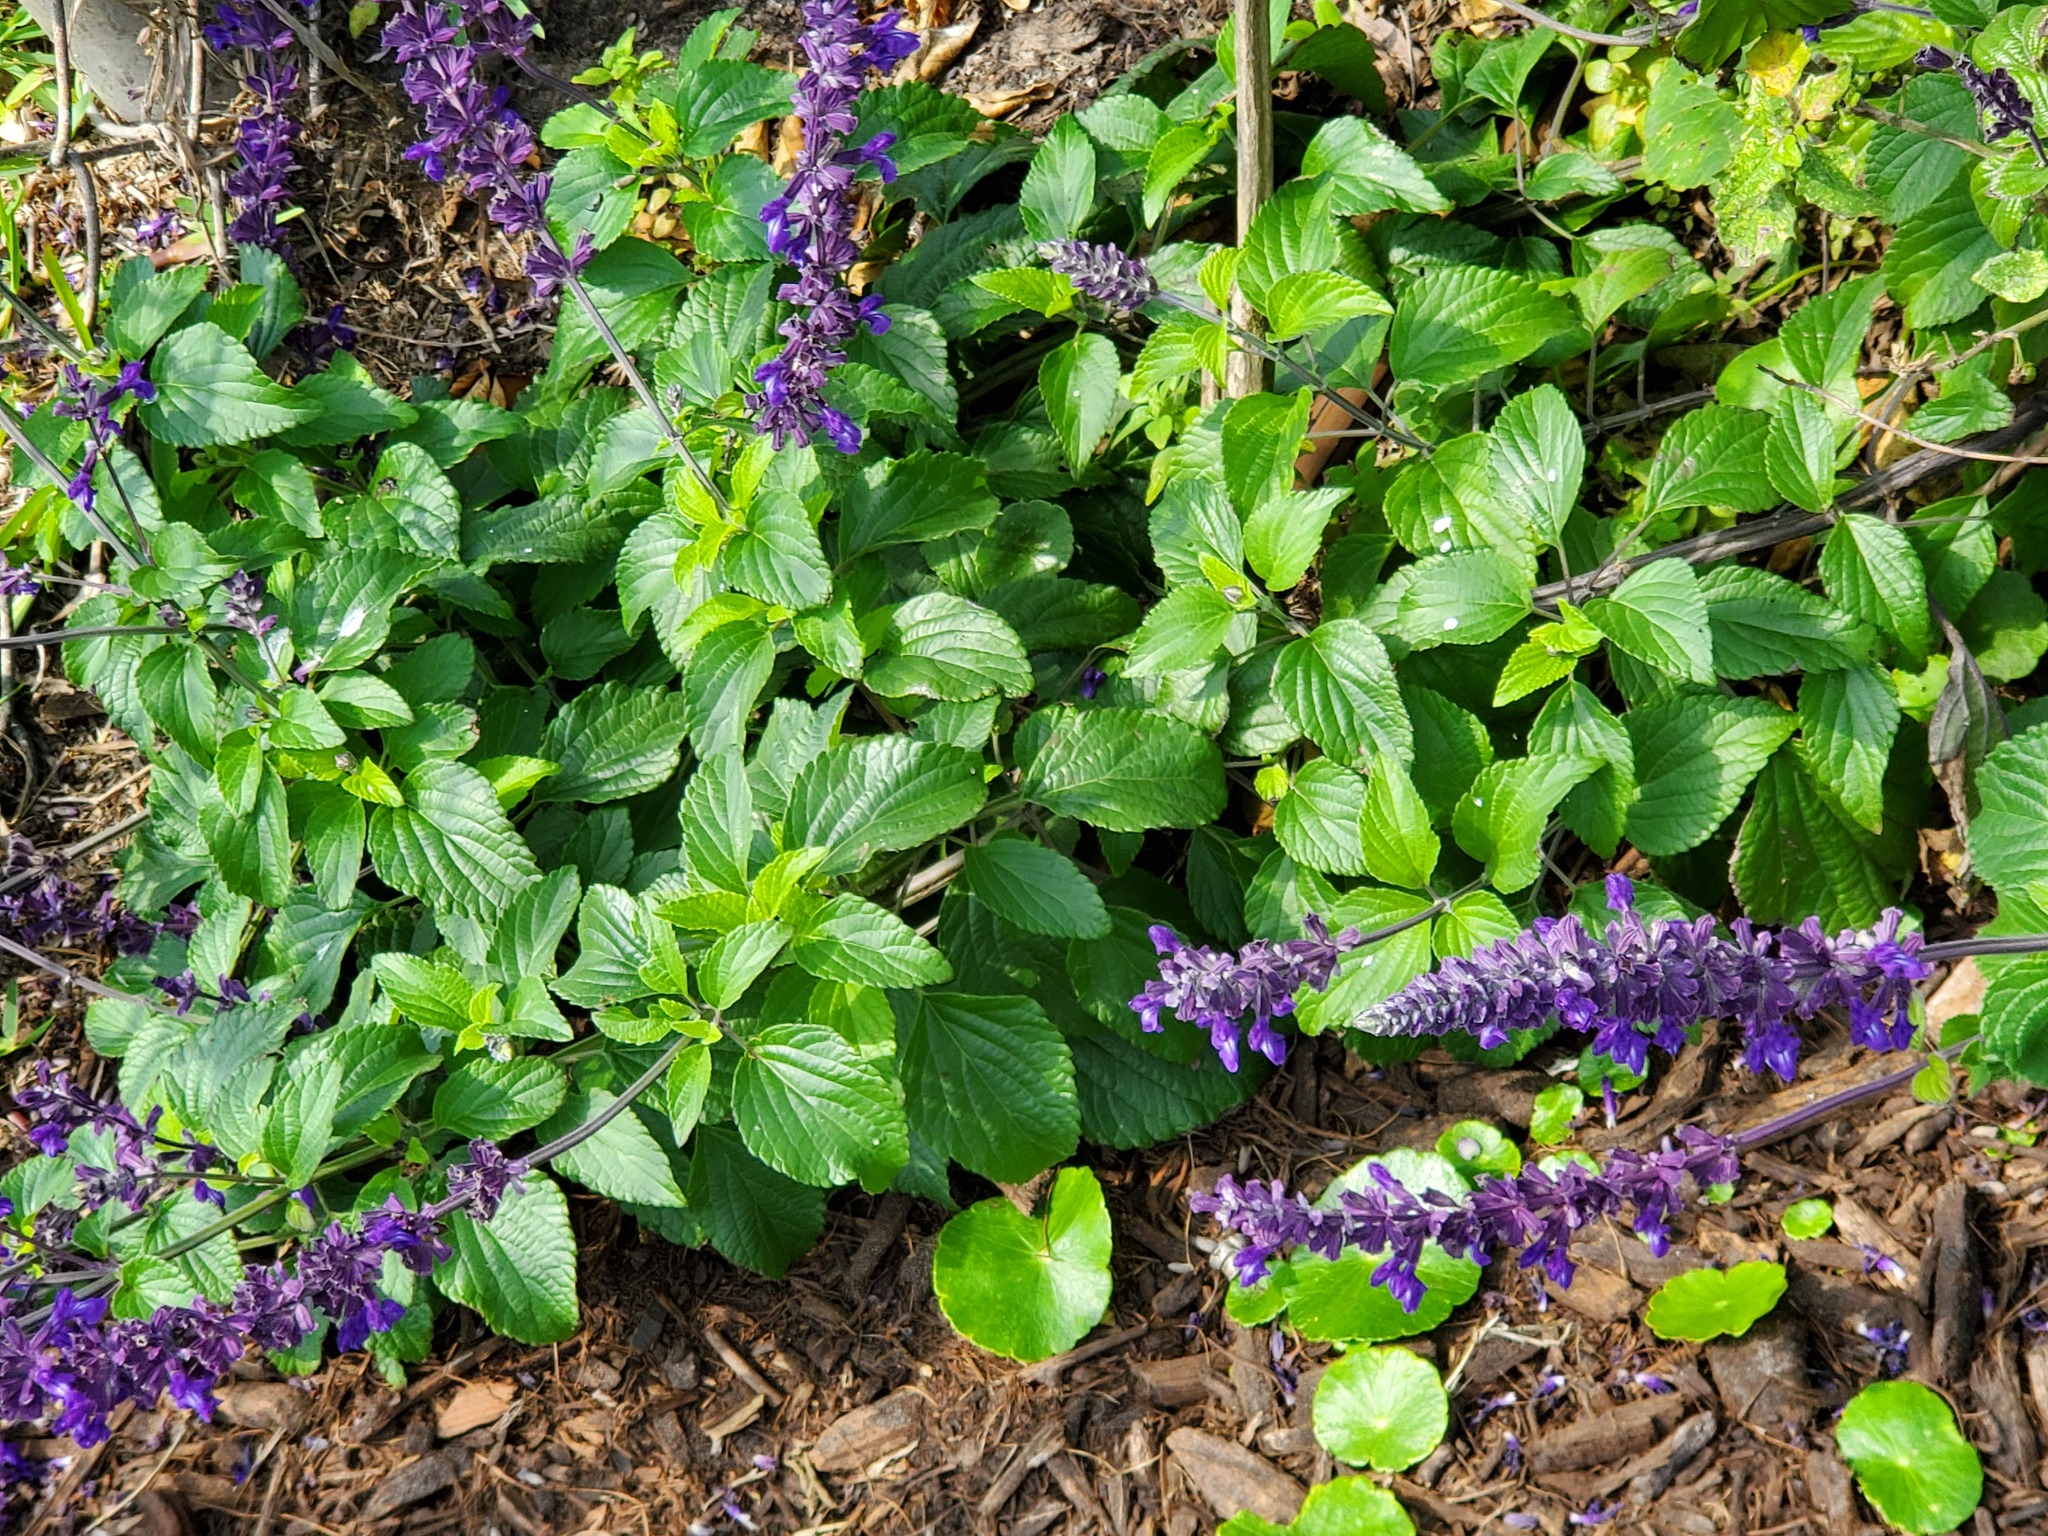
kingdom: Plantae
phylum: Tracheophyta
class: Magnoliopsida
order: Lamiales
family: Lamiaceae
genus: Salvia
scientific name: Salvia farinacea
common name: Mealy sage
